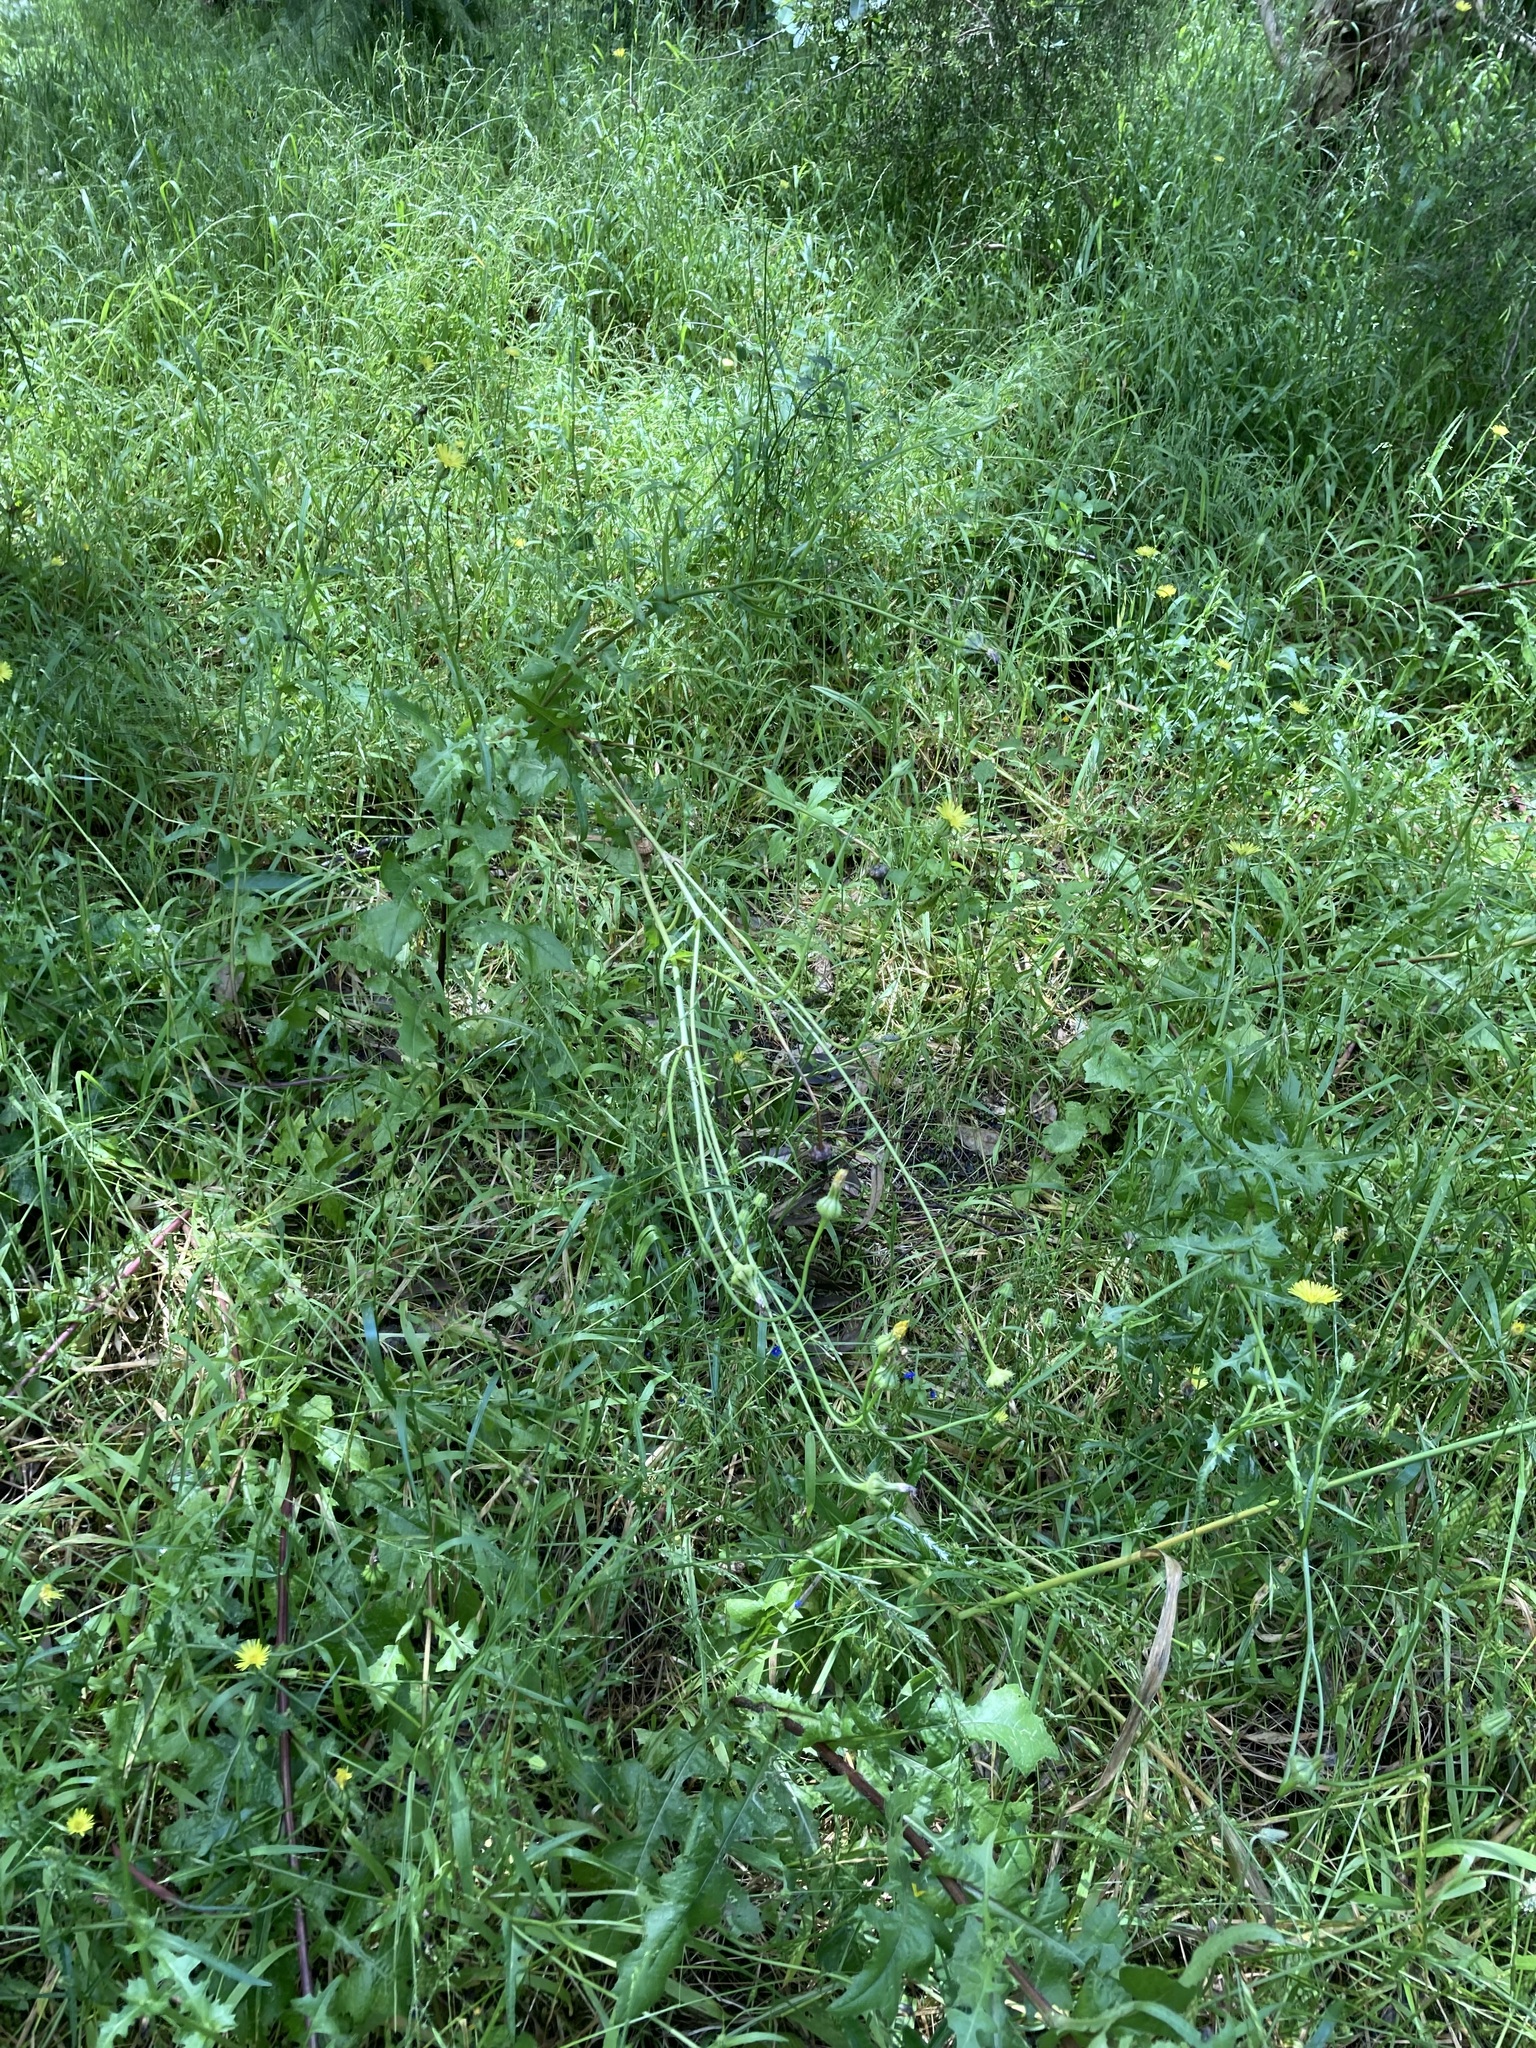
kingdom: Plantae
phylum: Tracheophyta
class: Magnoliopsida
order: Asterales
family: Asteraceae
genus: Urospermum
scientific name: Urospermum picroides
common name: False hawkbit
